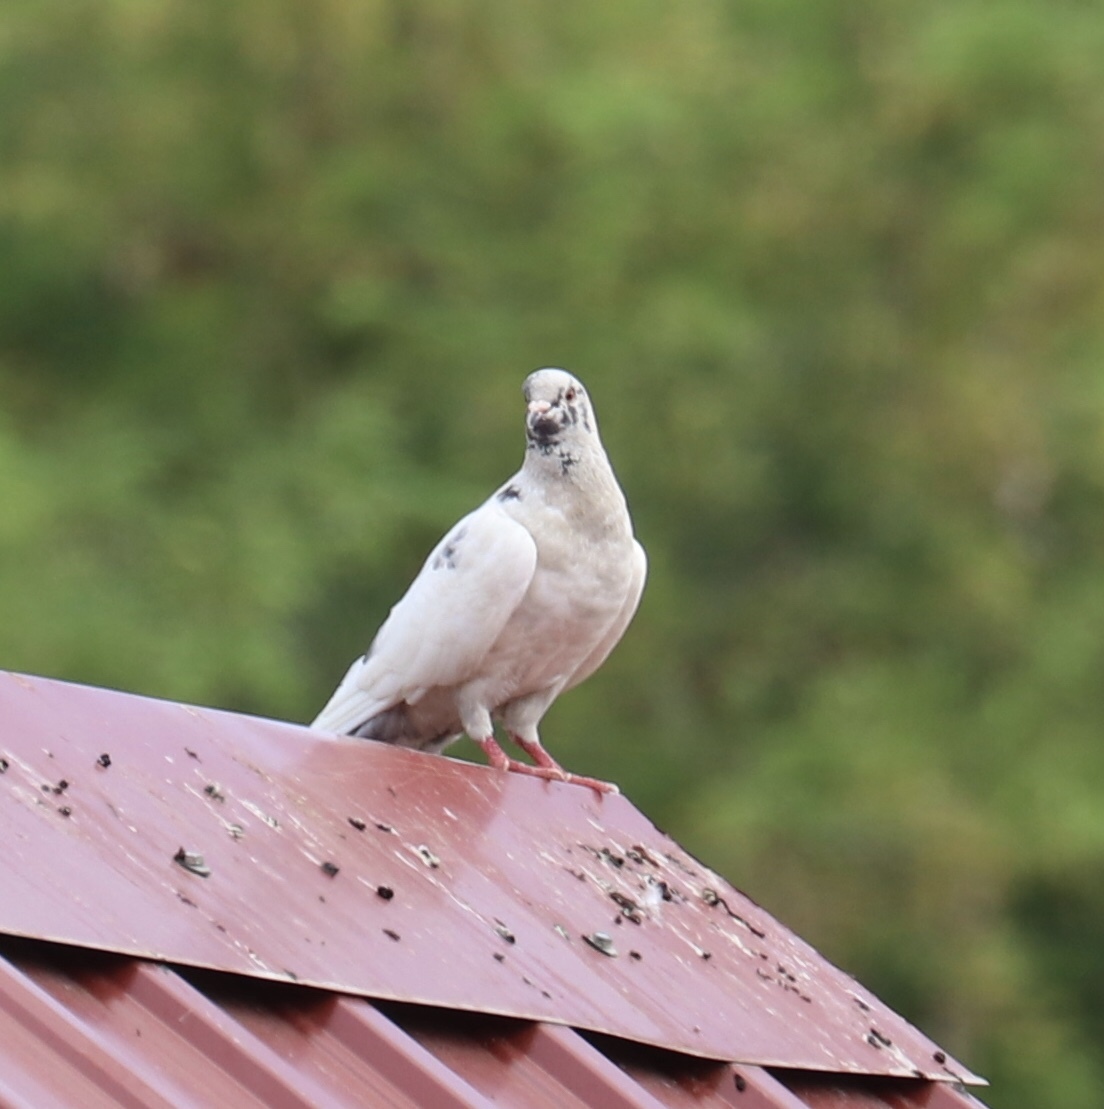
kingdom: Animalia
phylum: Chordata
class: Aves
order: Columbiformes
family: Columbidae
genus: Columba
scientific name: Columba livia
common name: Rock pigeon
